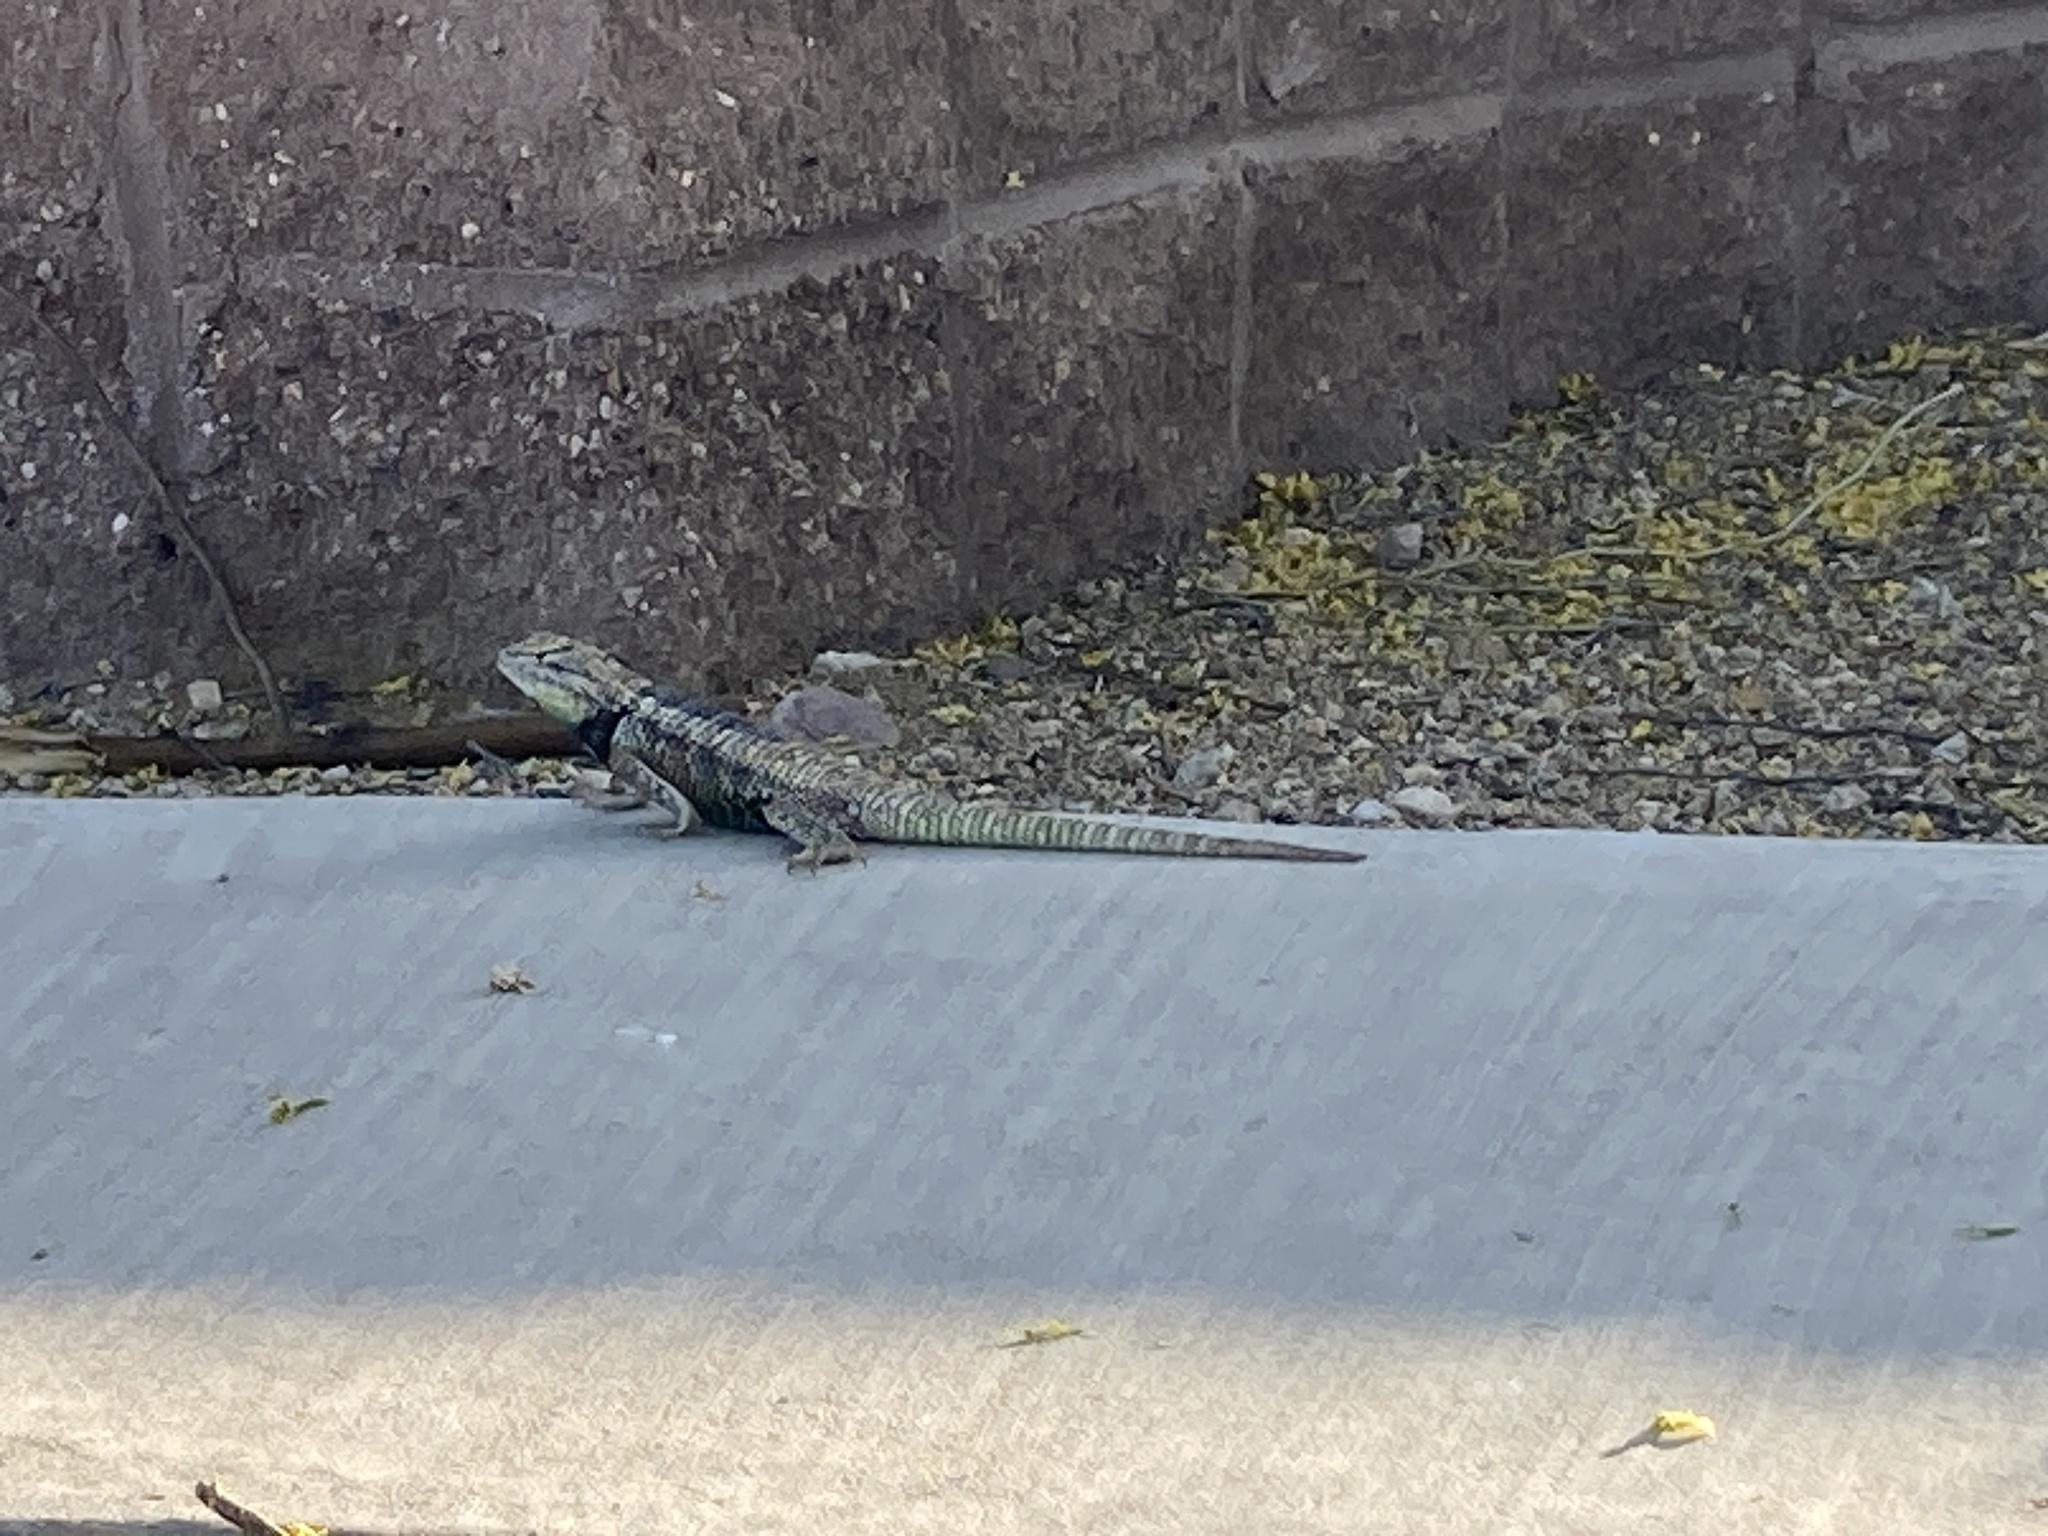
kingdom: Animalia
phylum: Chordata
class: Squamata
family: Phrynosomatidae
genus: Sceloporus
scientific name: Sceloporus magister
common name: Desert spiny lizard
